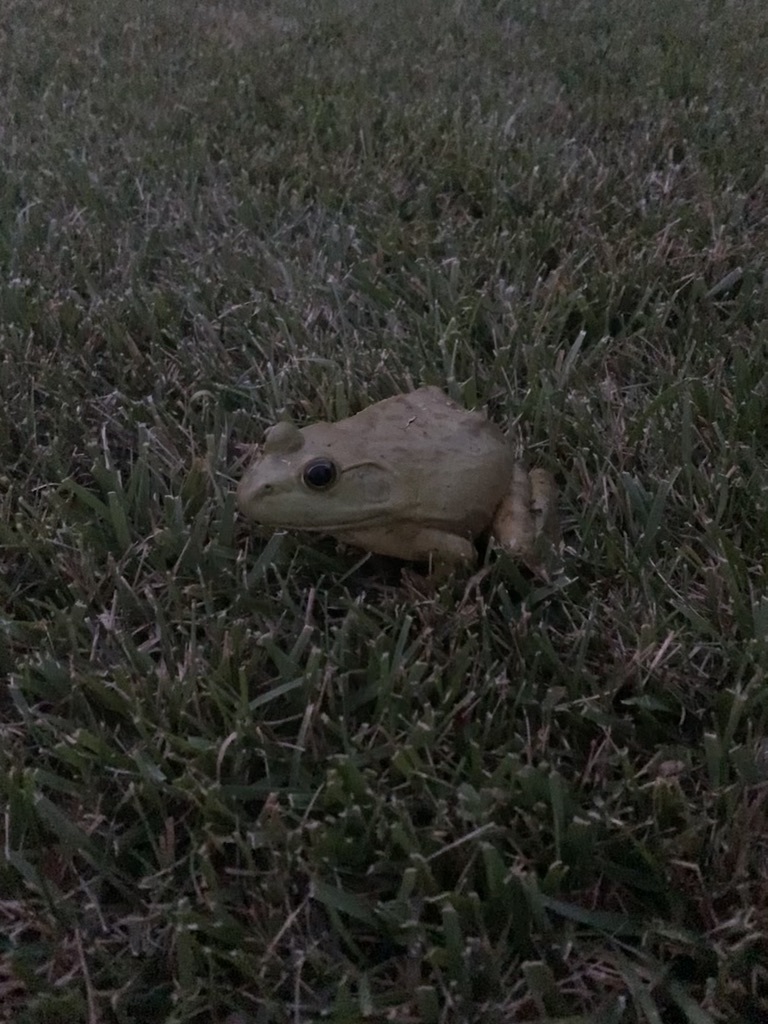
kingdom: Animalia
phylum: Chordata
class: Amphibia
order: Anura
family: Ranidae
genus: Lithobates
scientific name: Lithobates catesbeianus
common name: American bullfrog
